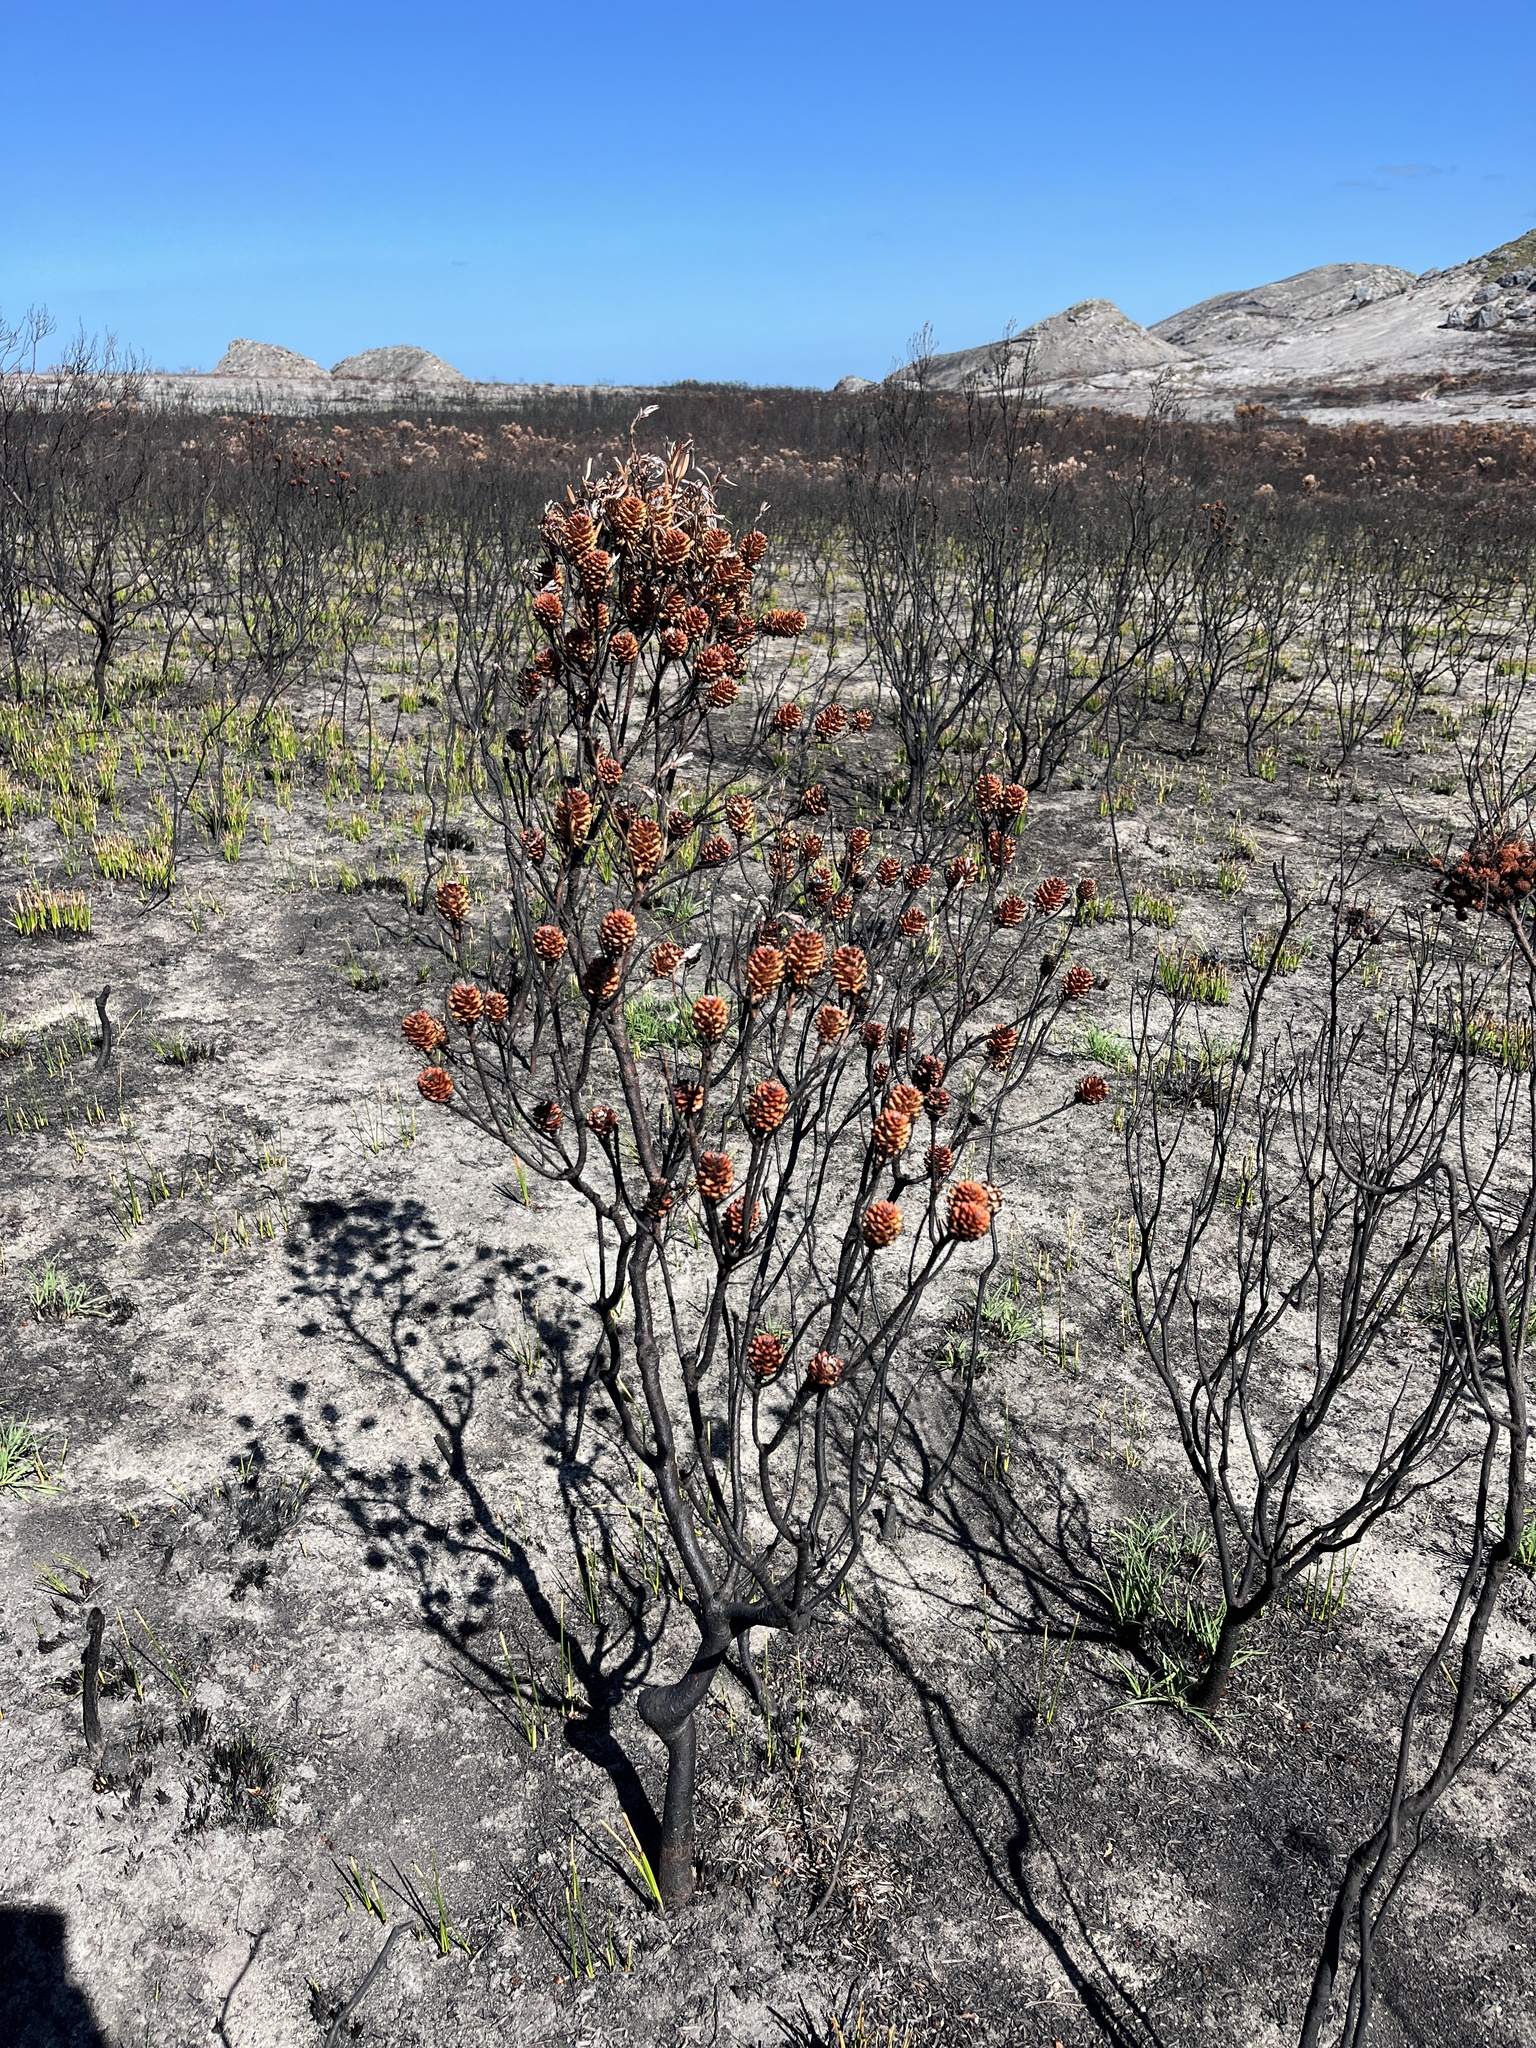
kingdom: Plantae
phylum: Tracheophyta
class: Magnoliopsida
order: Proteales
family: Proteaceae
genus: Leucadendron
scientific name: Leucadendron xanthoconus
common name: Sickle-leaf conebush
